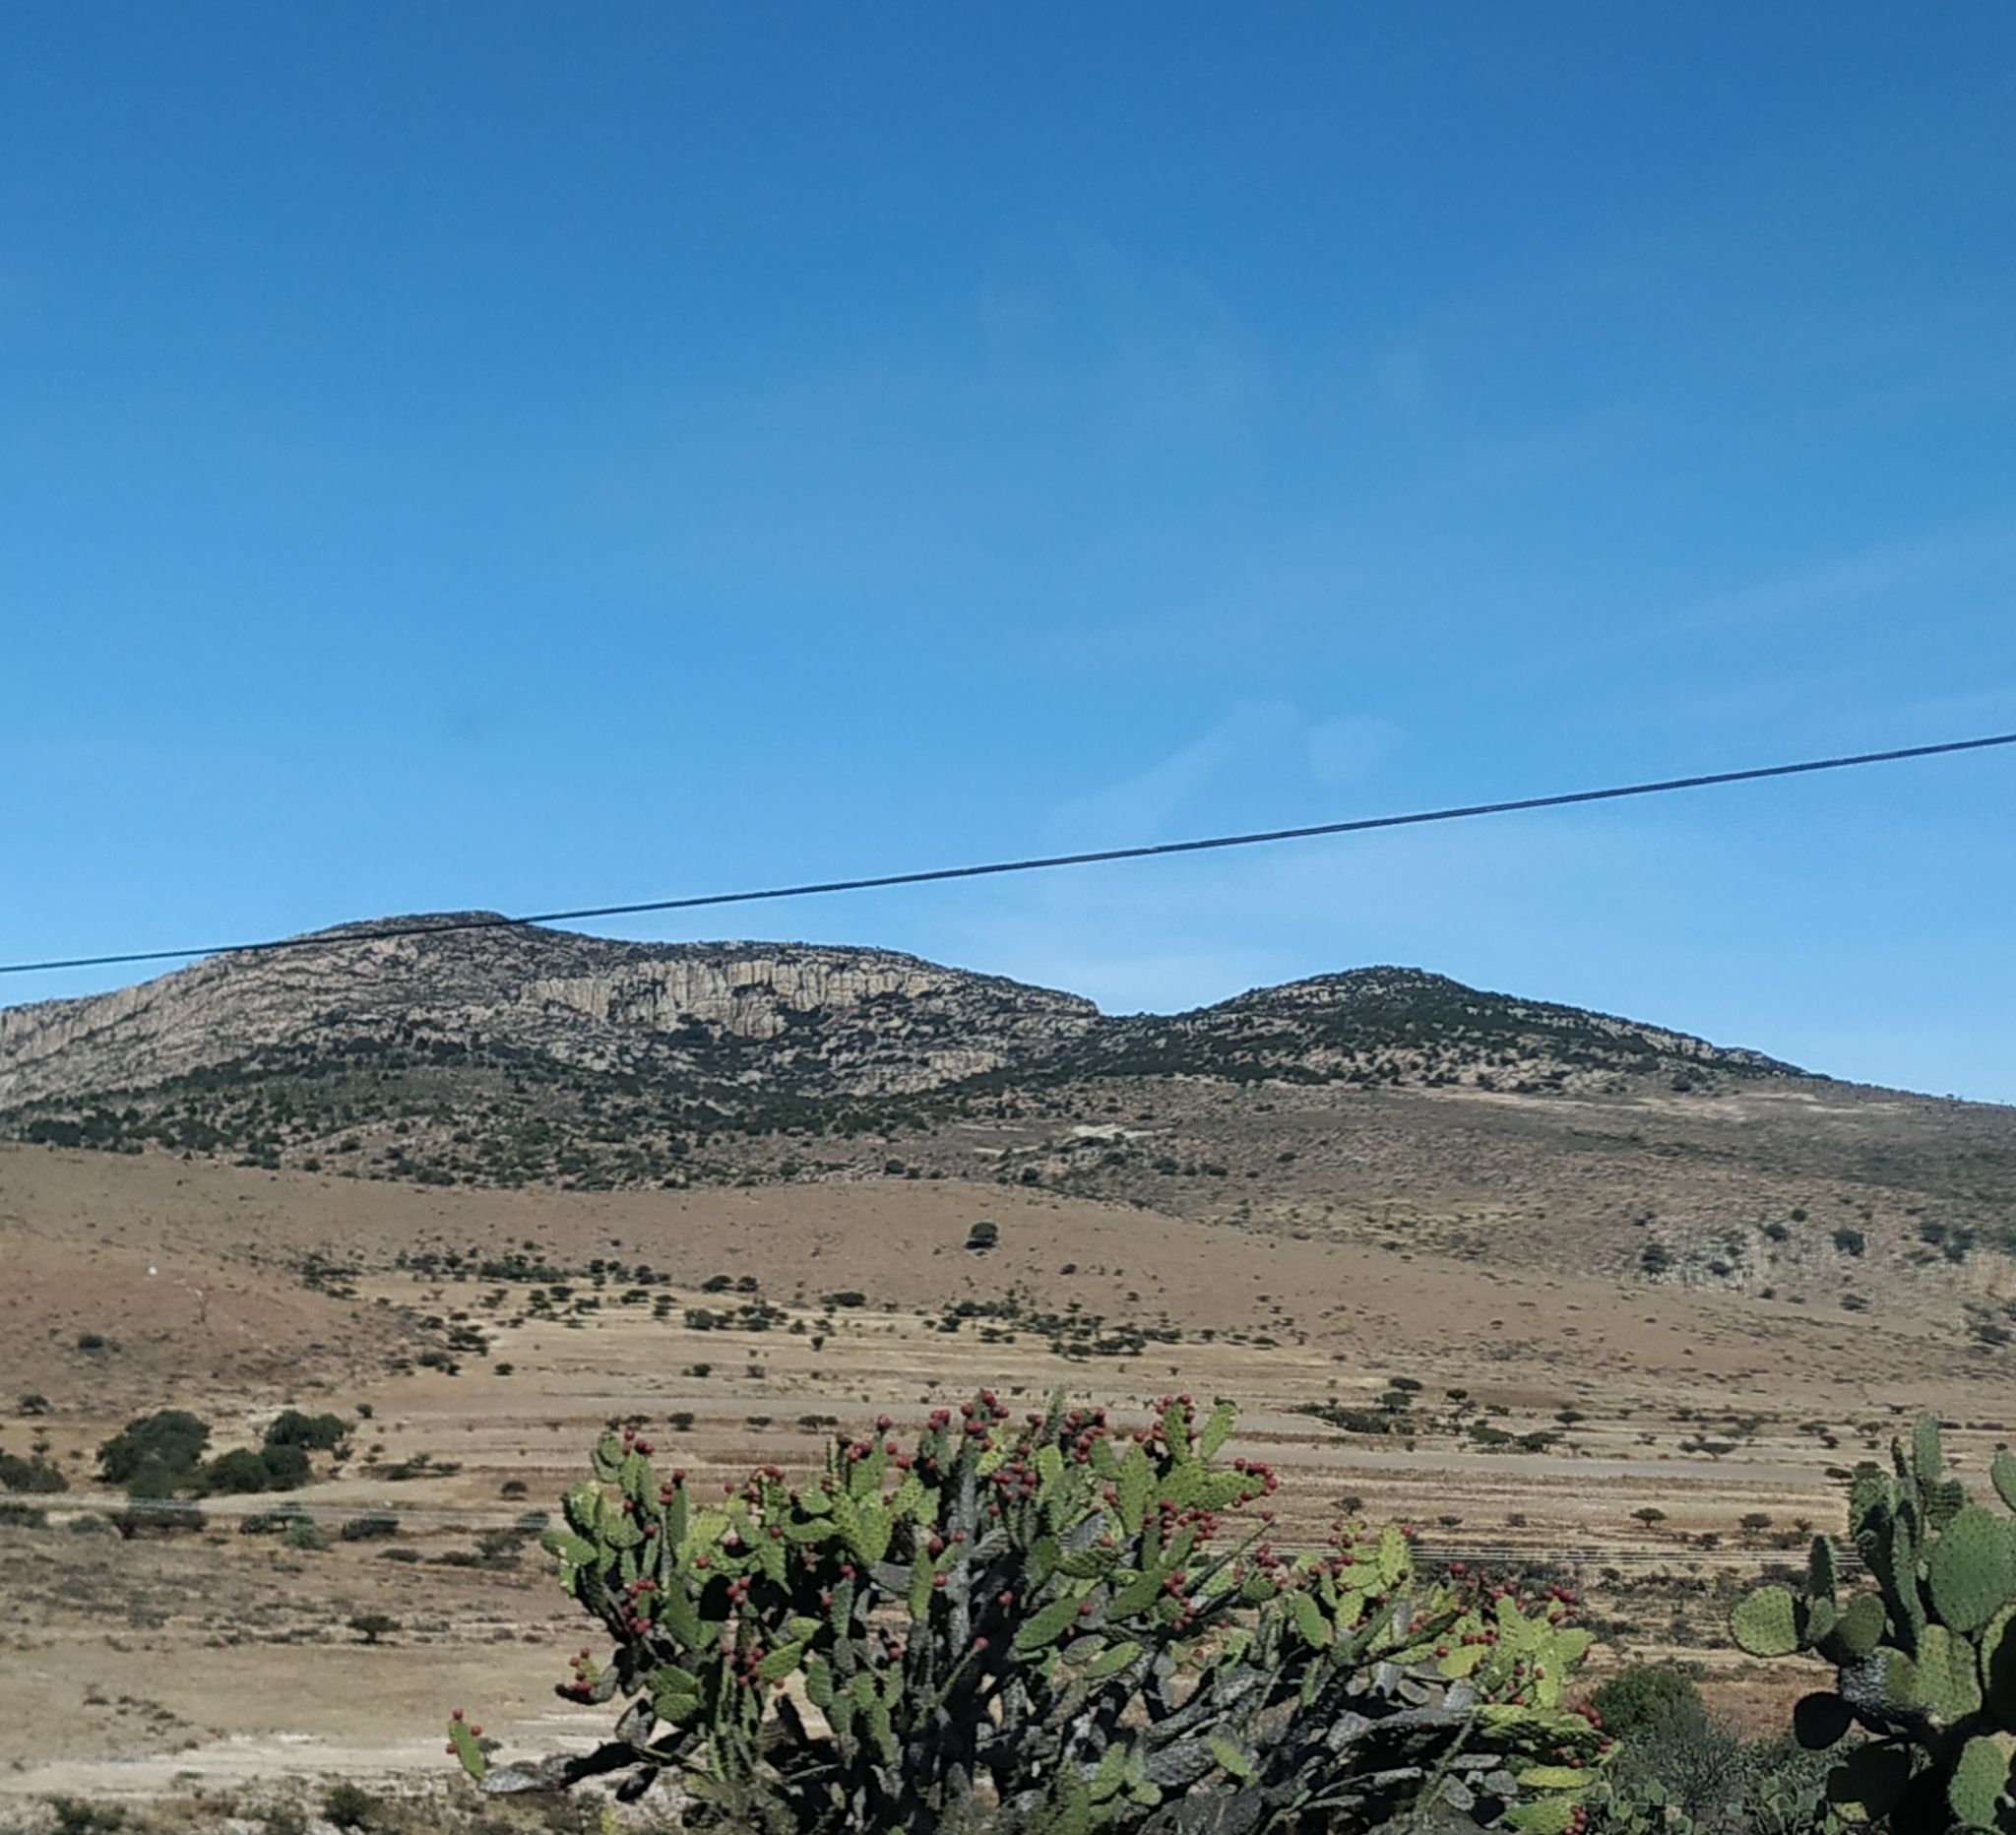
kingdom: Plantae
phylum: Tracheophyta
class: Magnoliopsida
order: Caryophyllales
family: Cactaceae
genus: Opuntia
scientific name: Opuntia
